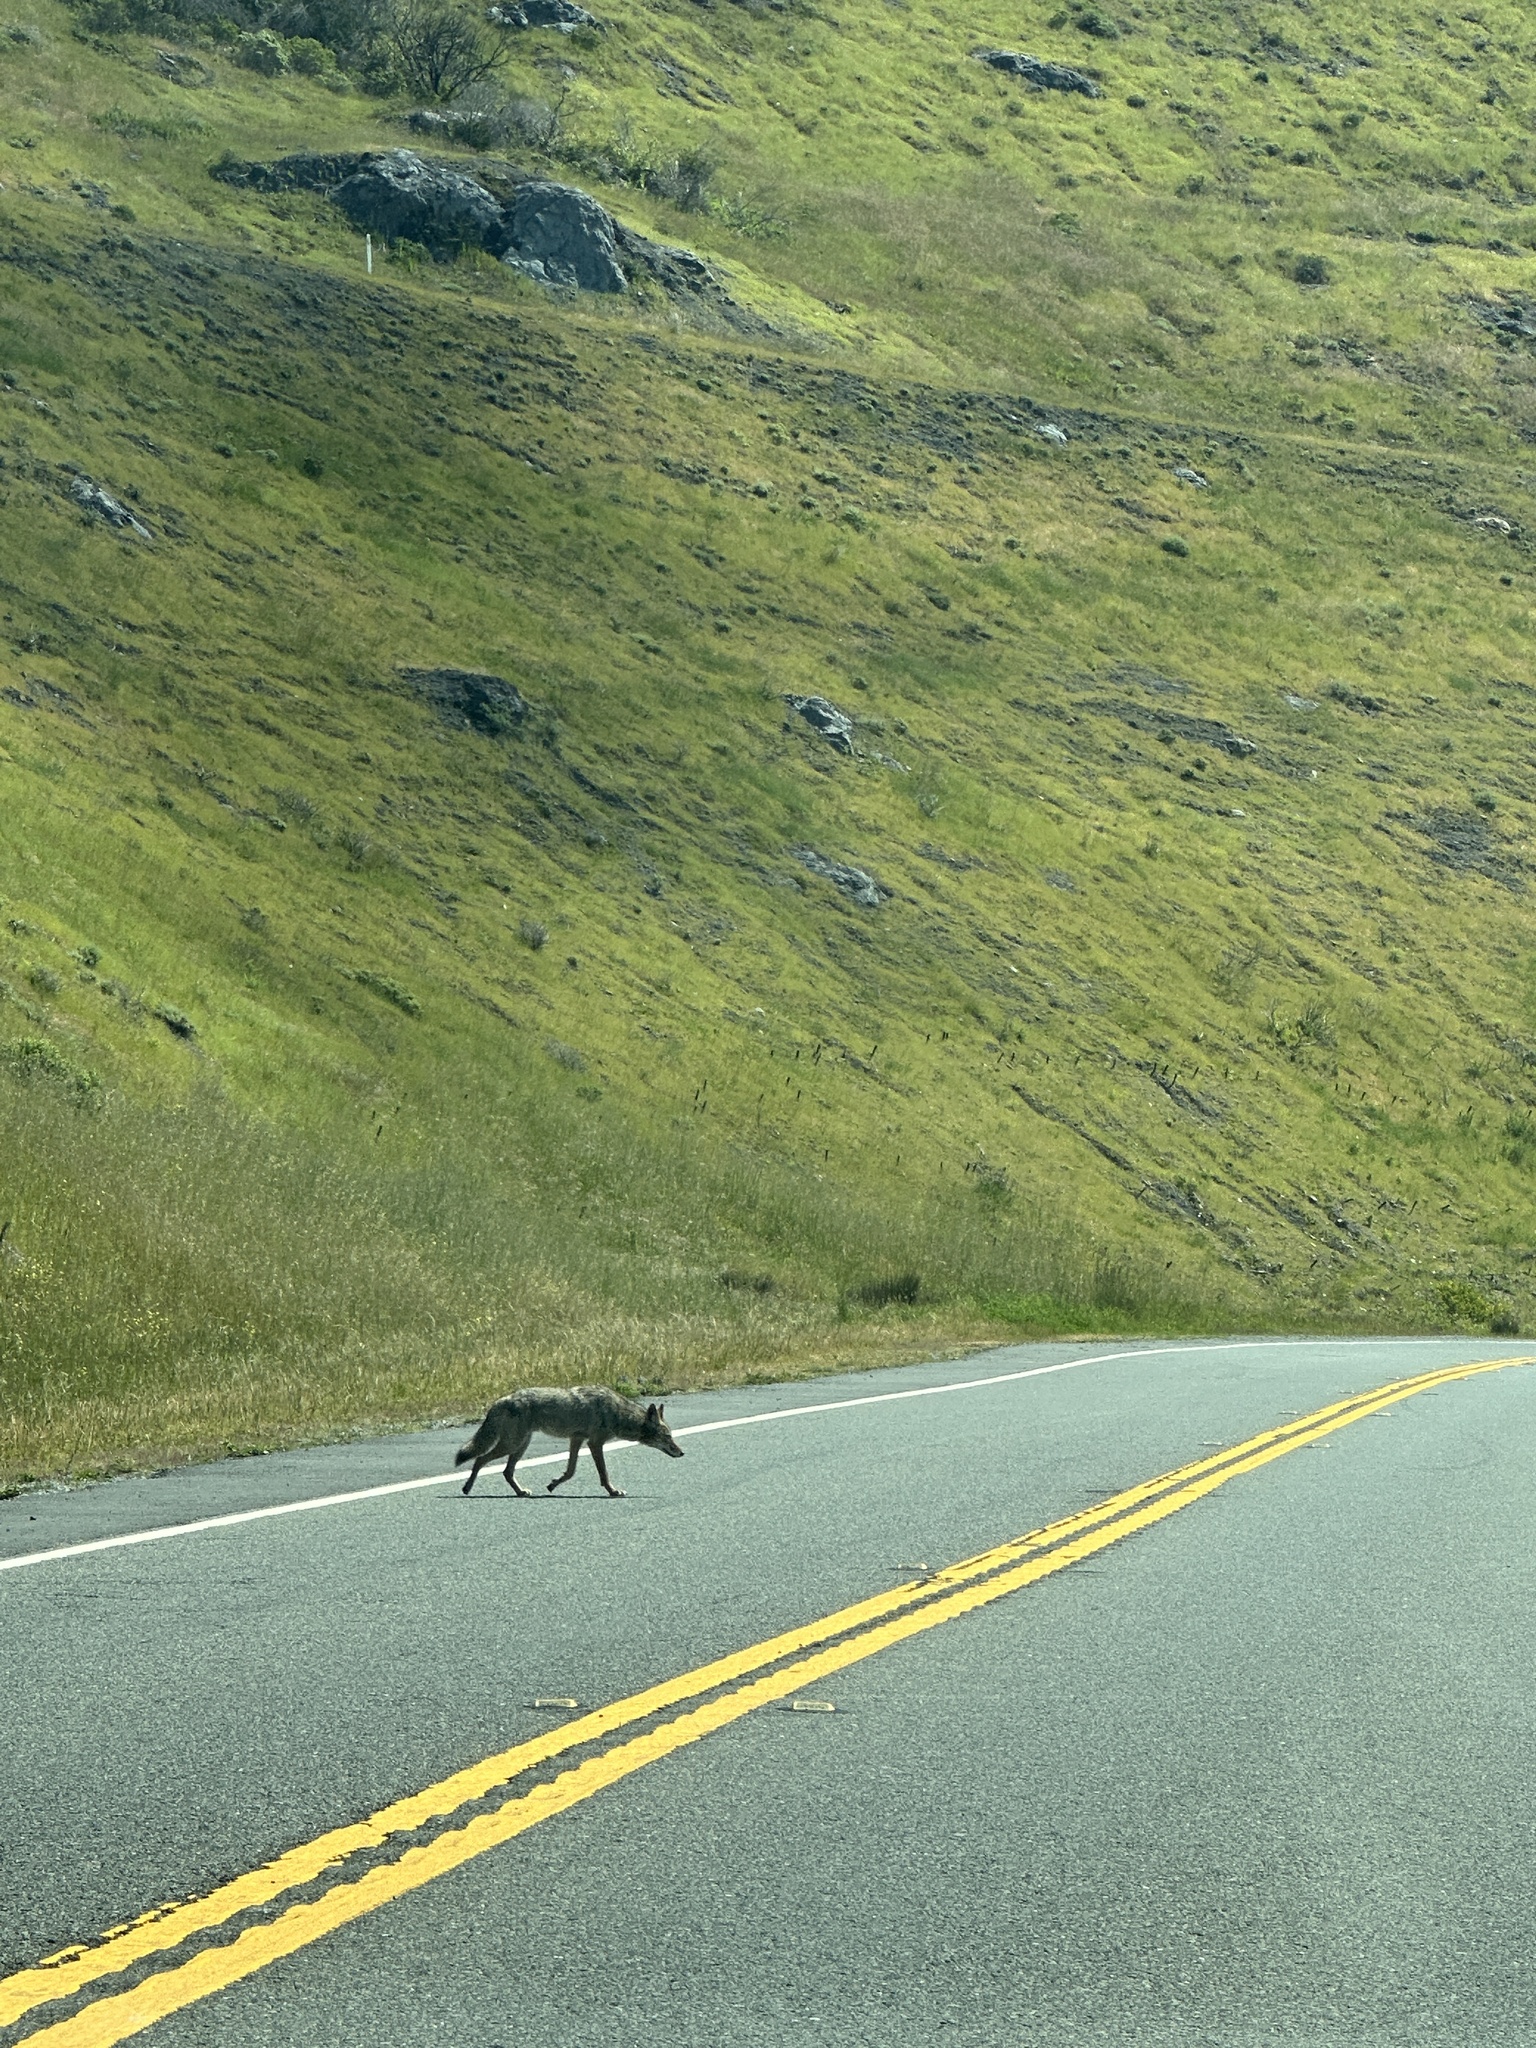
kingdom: Animalia
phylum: Chordata
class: Mammalia
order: Carnivora
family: Canidae
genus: Canis
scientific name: Canis latrans
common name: Coyote
